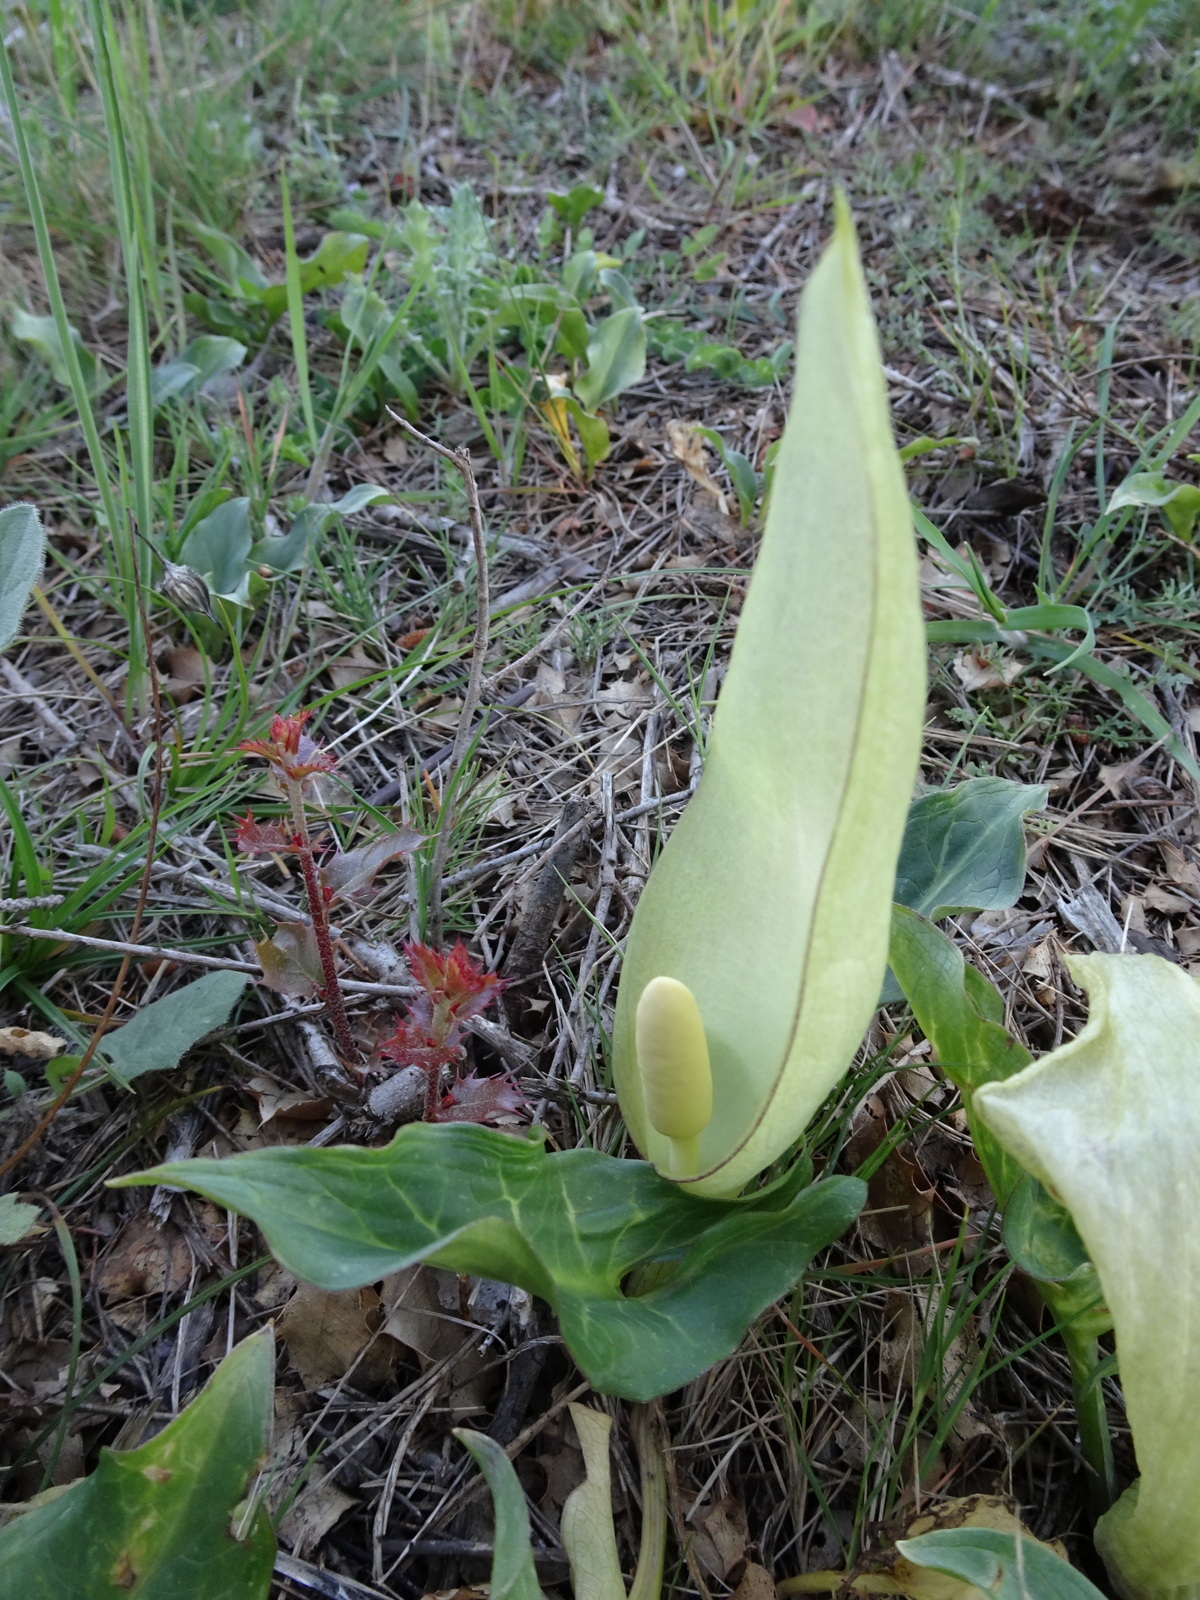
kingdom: Plantae
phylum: Tracheophyta
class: Liliopsida
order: Alismatales
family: Araceae
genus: Arum
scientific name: Arum italicum
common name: Italian lords-and-ladies
